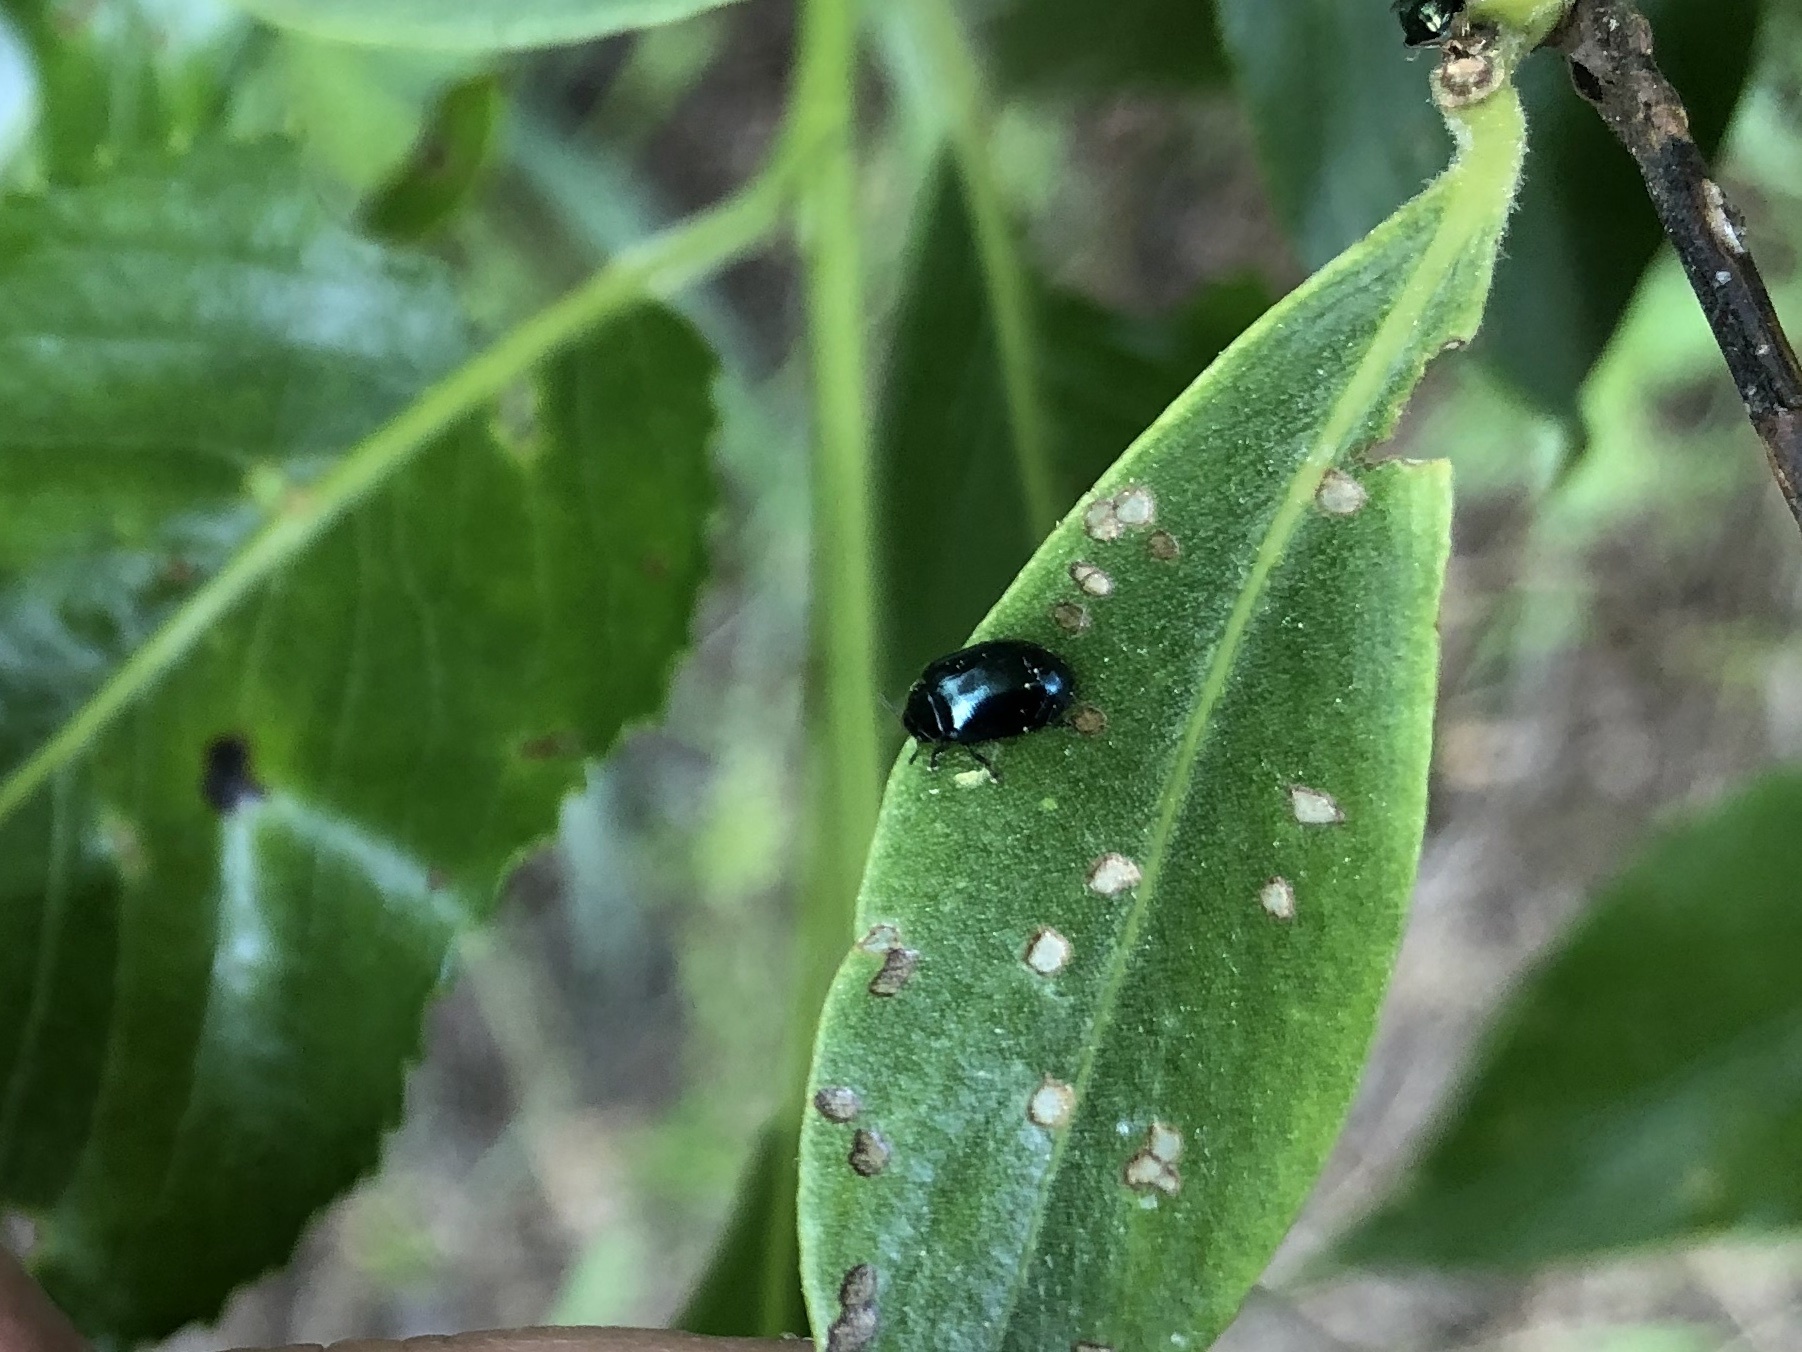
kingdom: Animalia
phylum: Arthropoda
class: Insecta
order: Coleoptera
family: Chrysomelidae
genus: Plagiodera
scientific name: Plagiodera versicolora
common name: Imported willow leaf beetle
